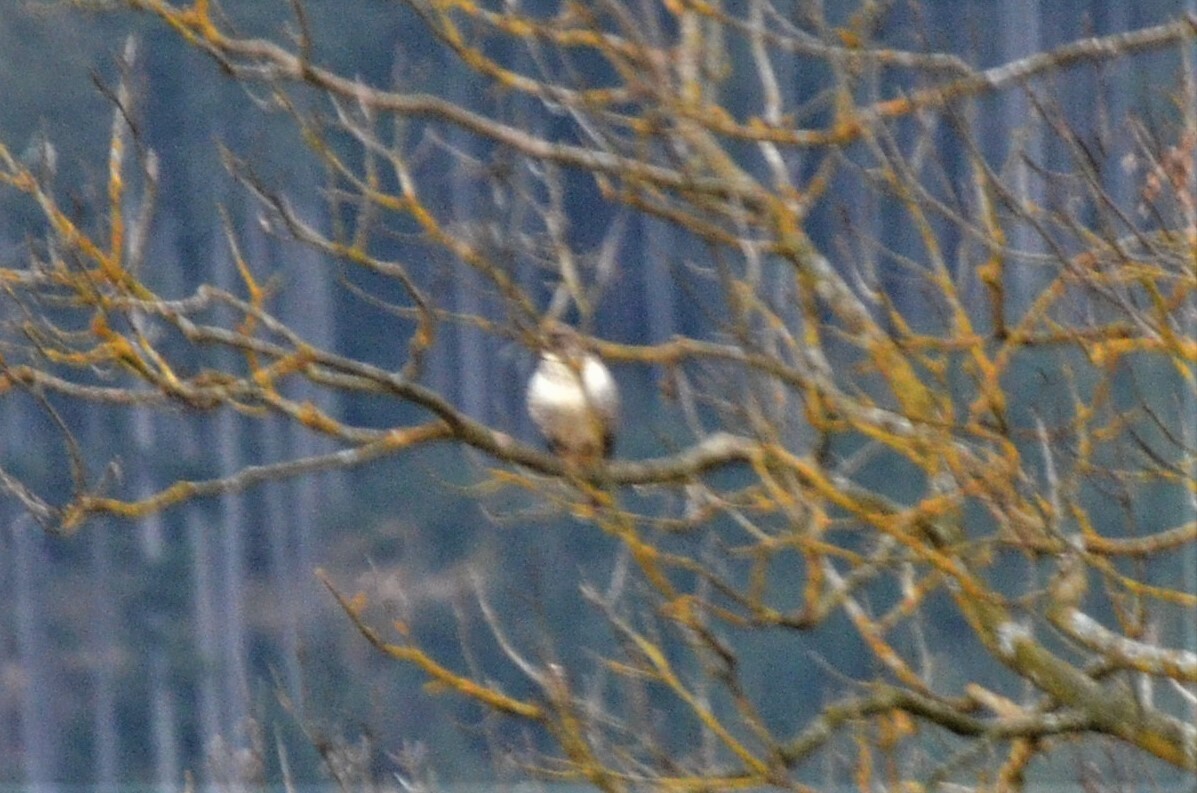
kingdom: Animalia
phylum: Chordata
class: Aves
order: Accipitriformes
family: Accipitridae
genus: Buteo
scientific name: Buteo buteo
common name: Common buzzard
